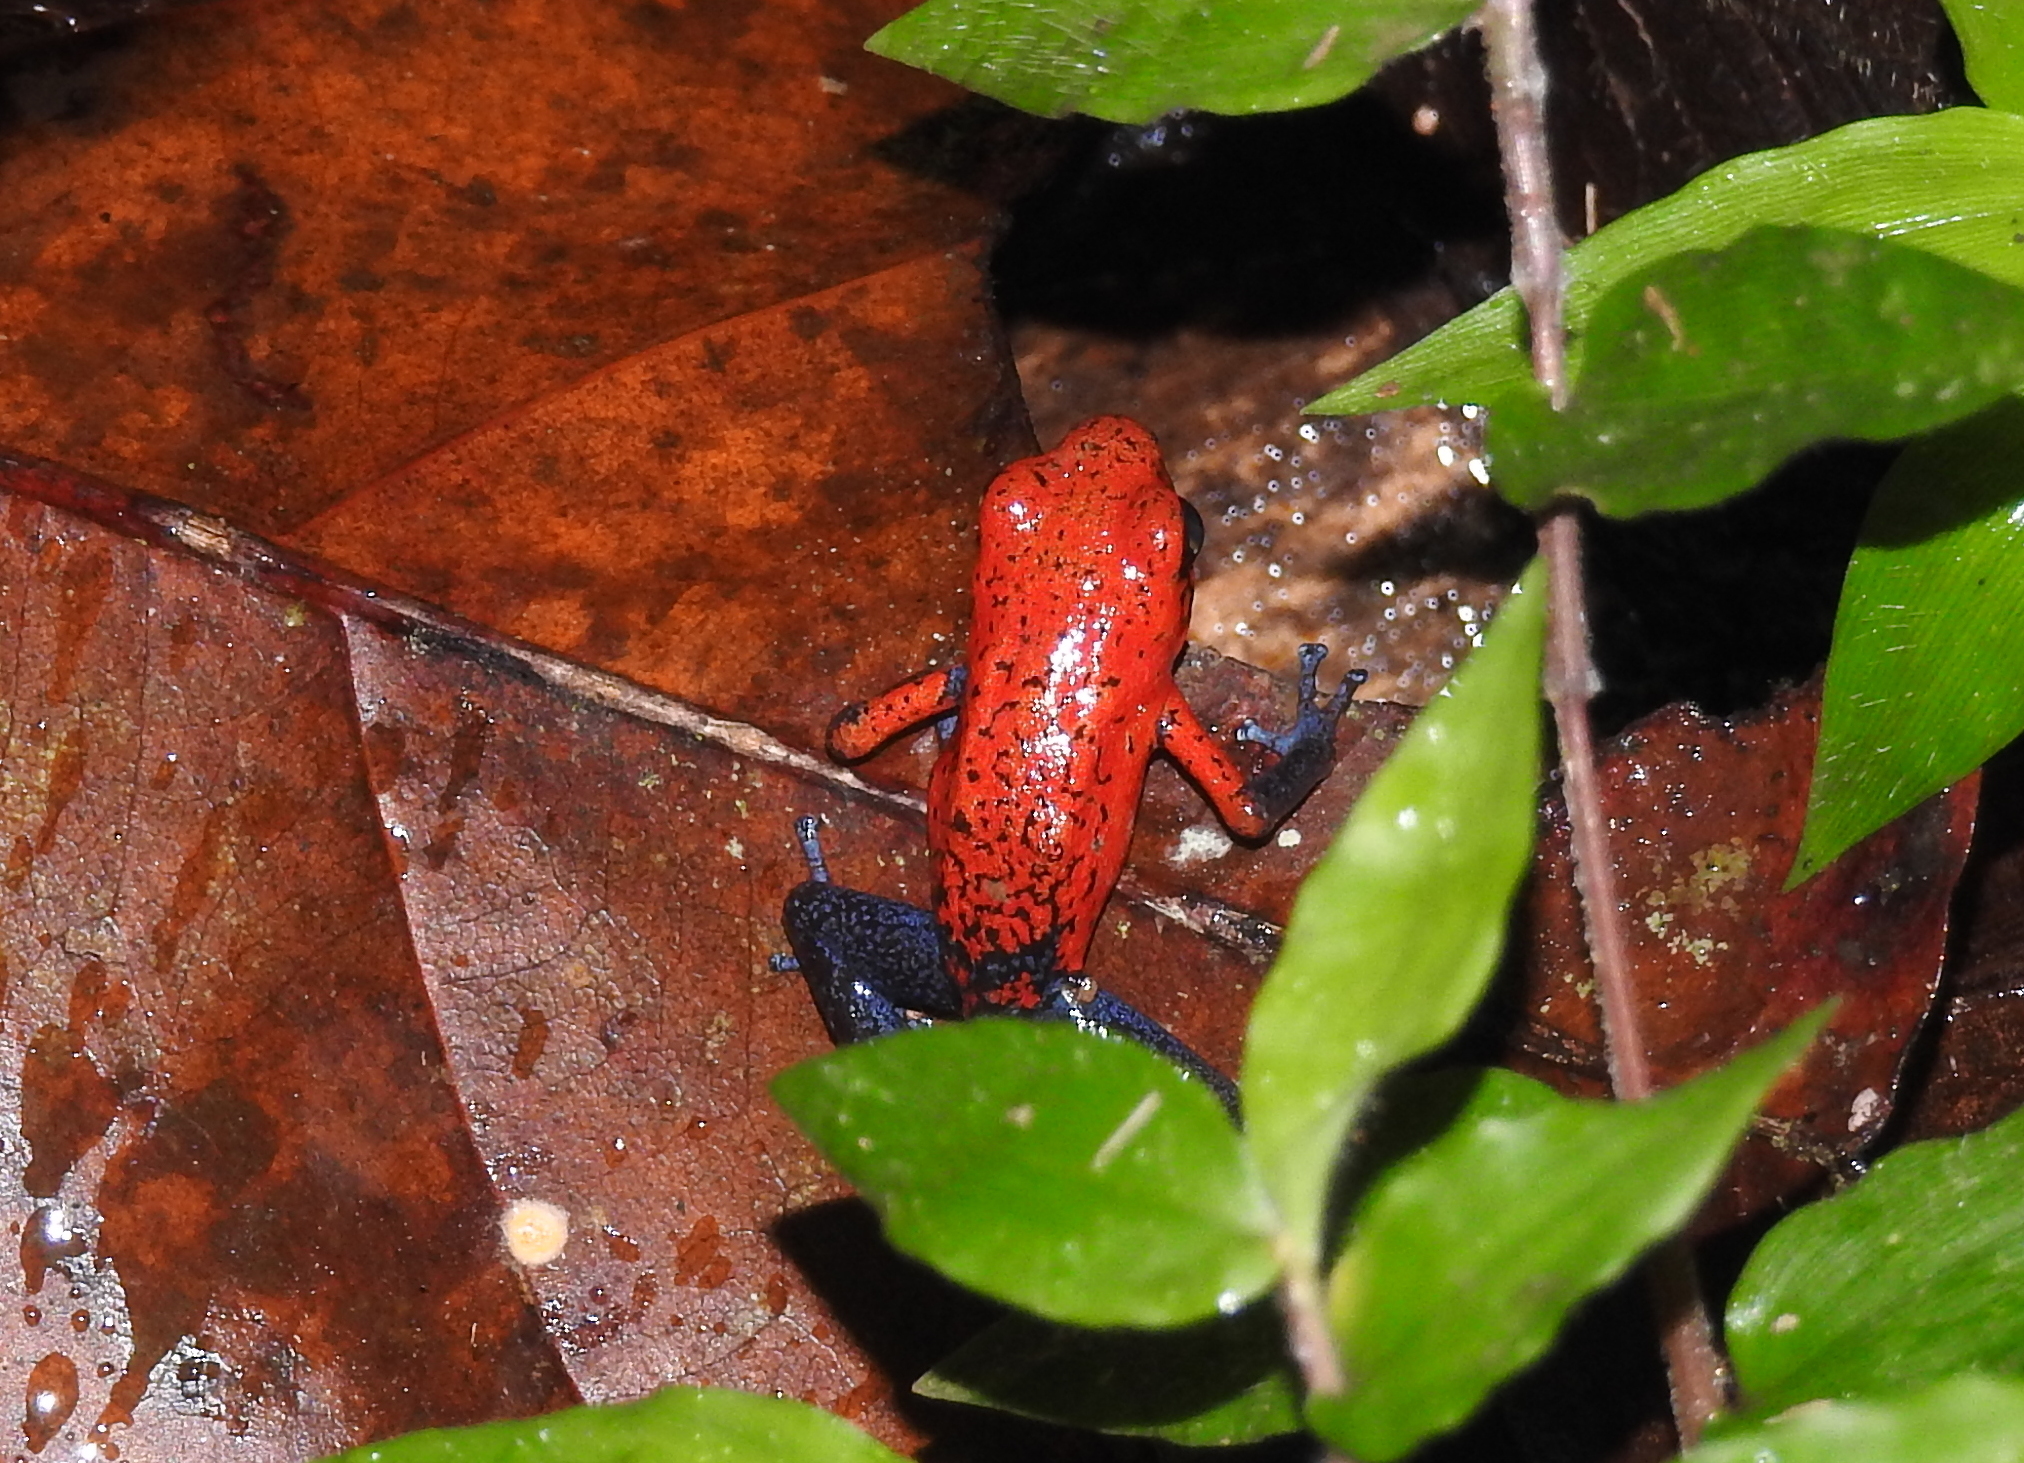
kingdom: Animalia
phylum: Chordata
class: Amphibia
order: Anura
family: Dendrobatidae
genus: Oophaga
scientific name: Oophaga pumilio
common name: Flaming poison frog
